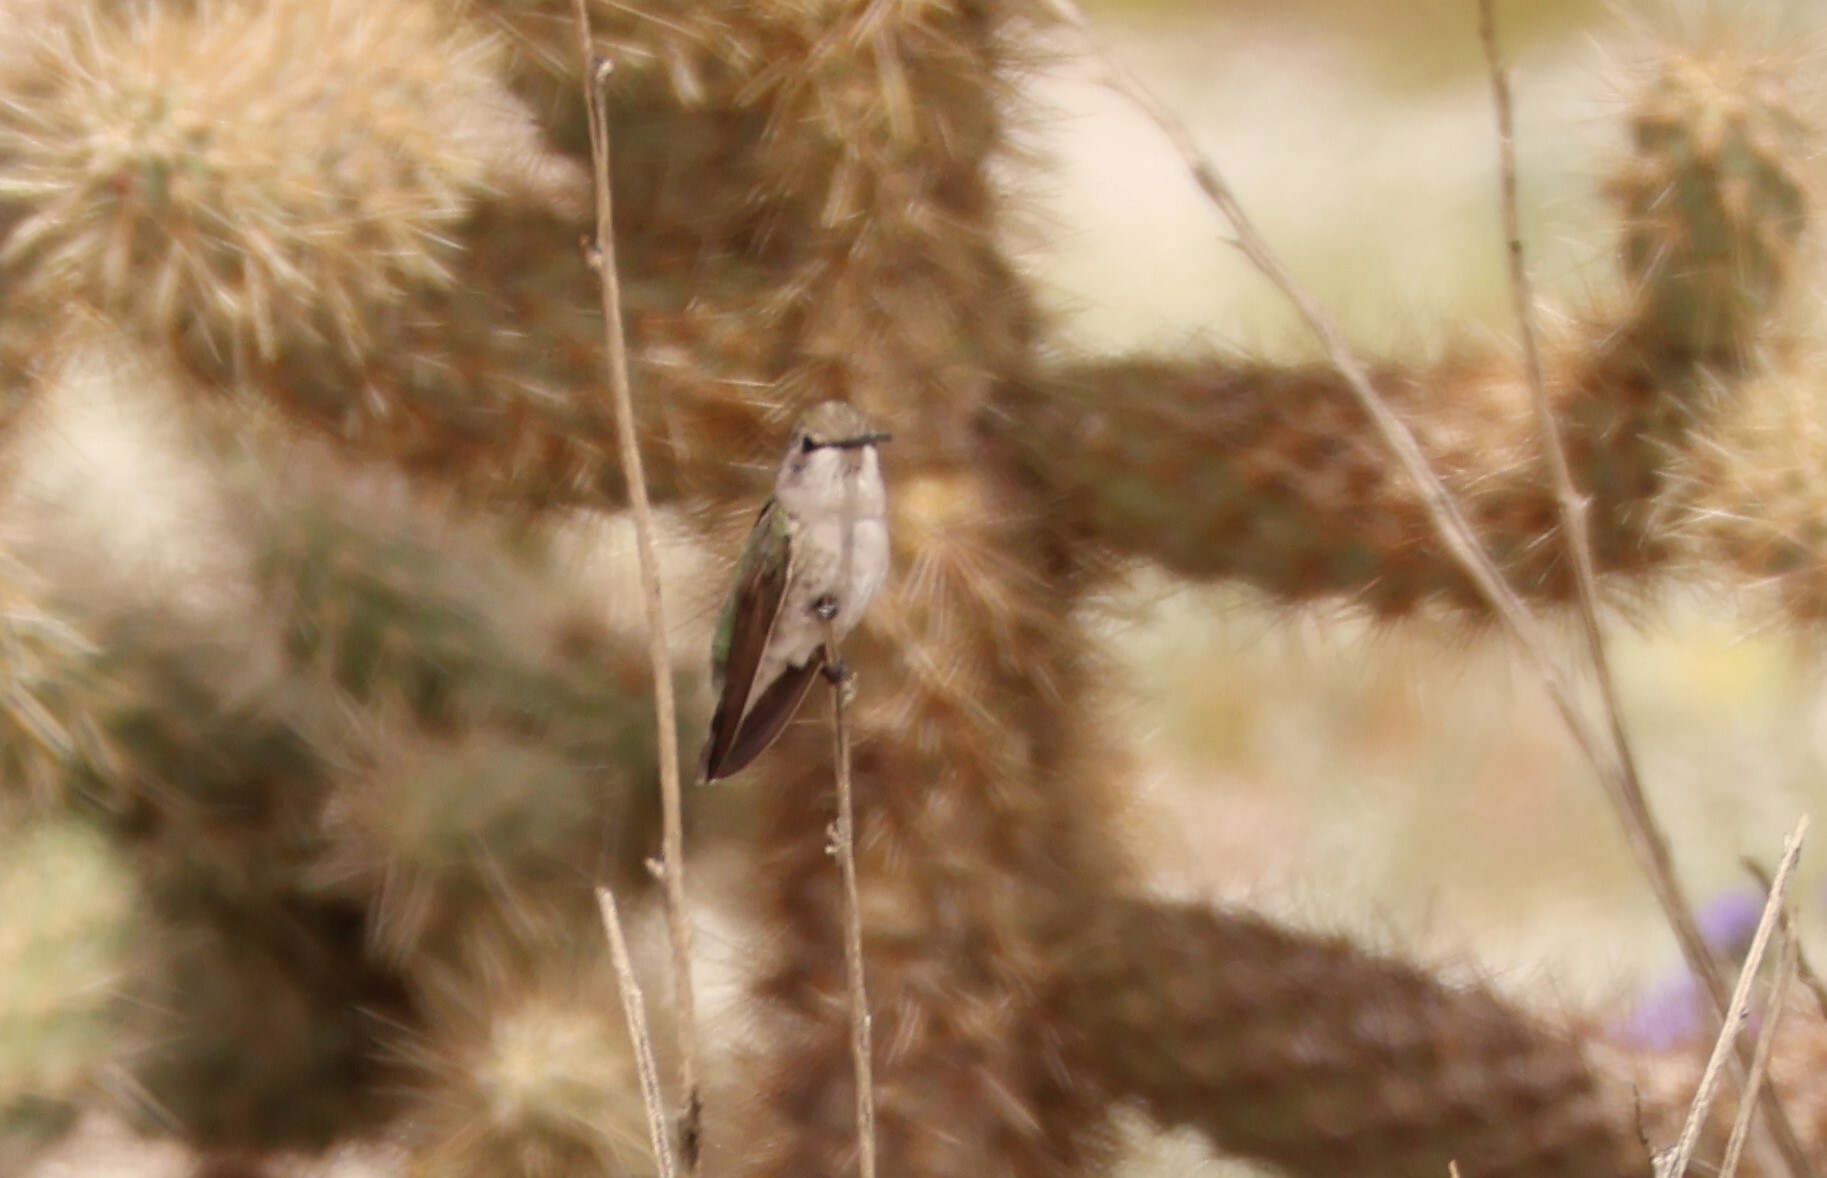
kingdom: Animalia
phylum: Chordata
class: Aves
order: Apodiformes
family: Trochilidae
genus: Calypte
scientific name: Calypte costae
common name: Costa's hummingbird
